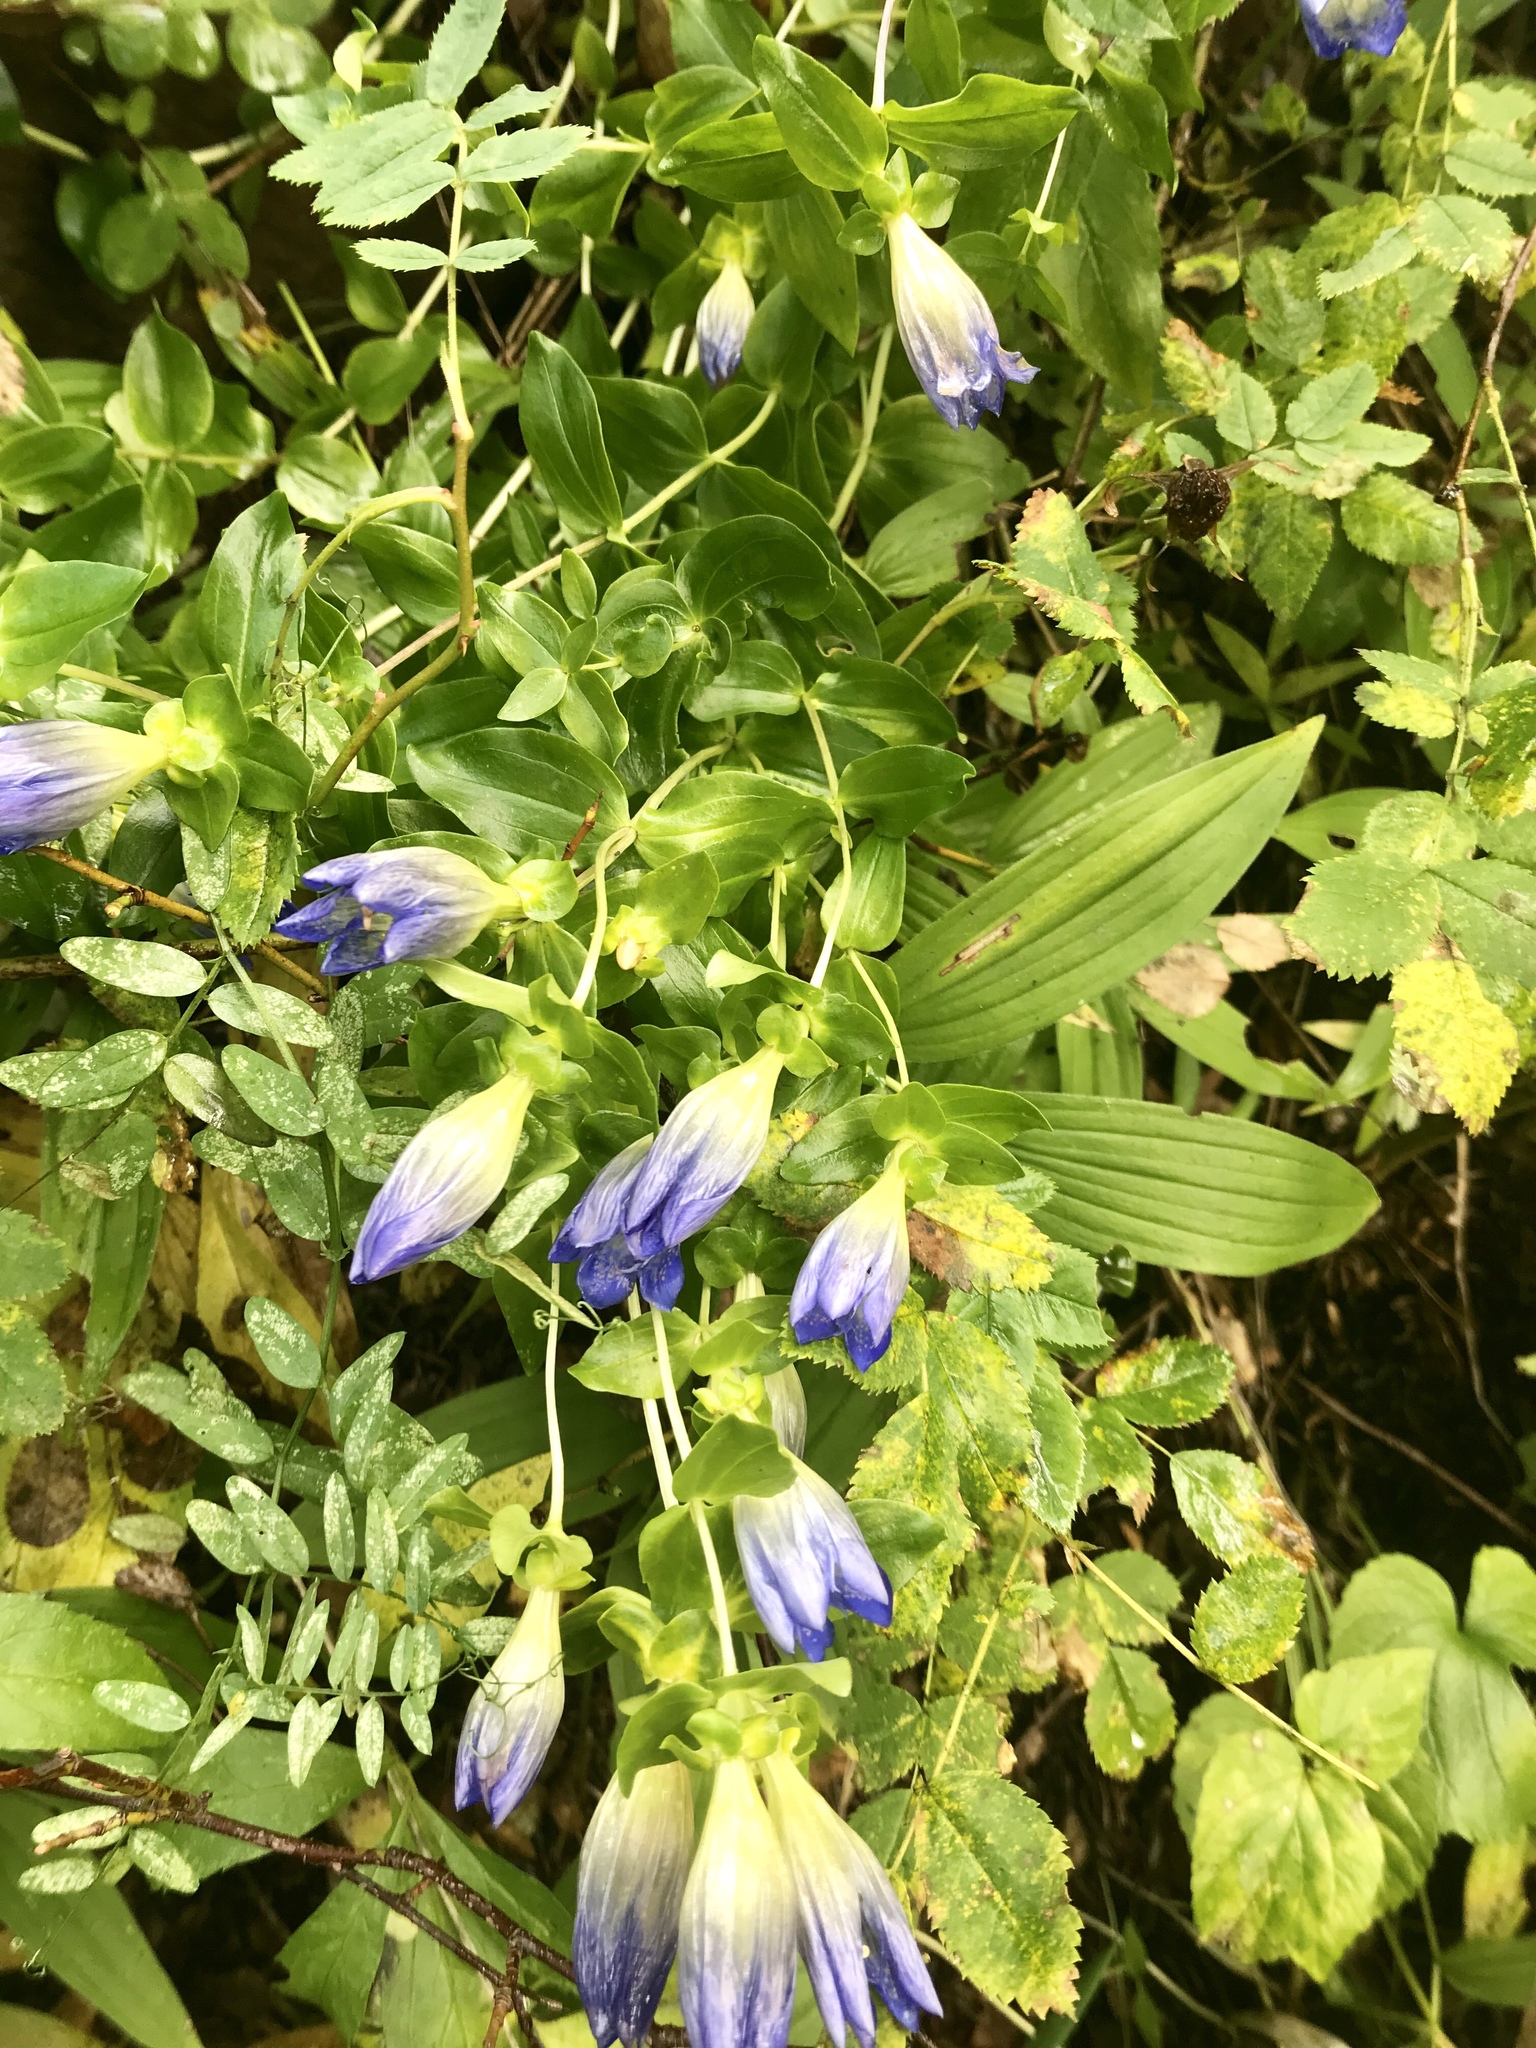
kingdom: Plantae
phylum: Tracheophyta
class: Magnoliopsida
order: Gentianales
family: Gentianaceae
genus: Gentiana
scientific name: Gentiana calycosa
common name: Rainier pleated gentian
